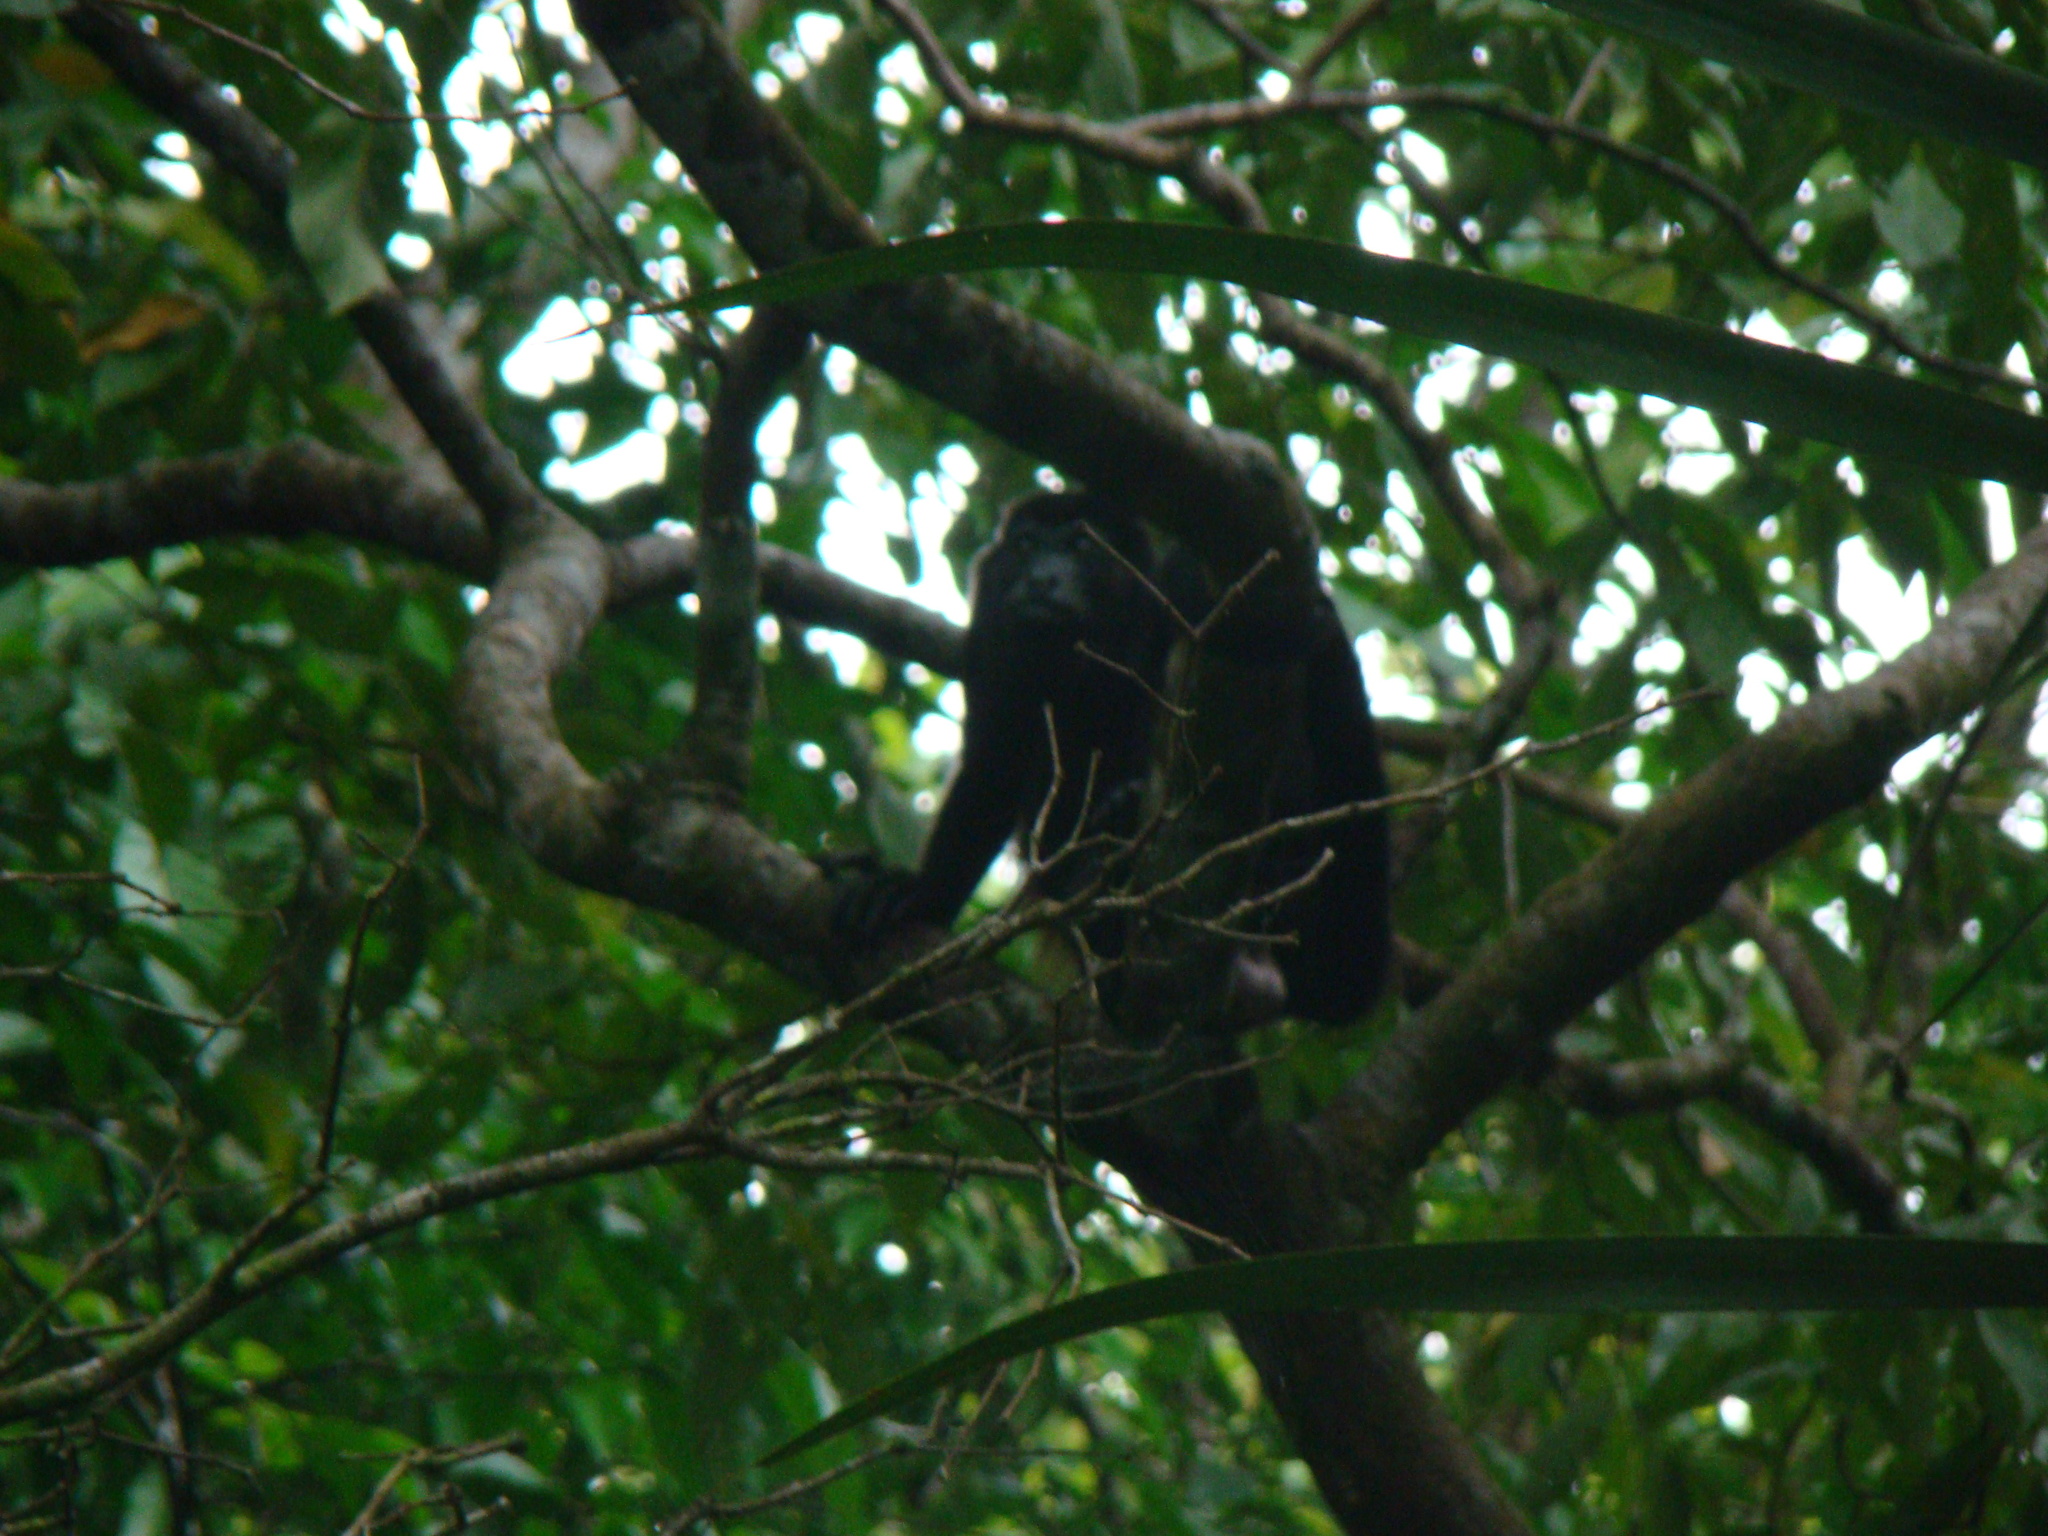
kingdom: Animalia
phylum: Chordata
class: Mammalia
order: Primates
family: Atelidae
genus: Alouatta
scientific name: Alouatta palliata
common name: Mantled howler
